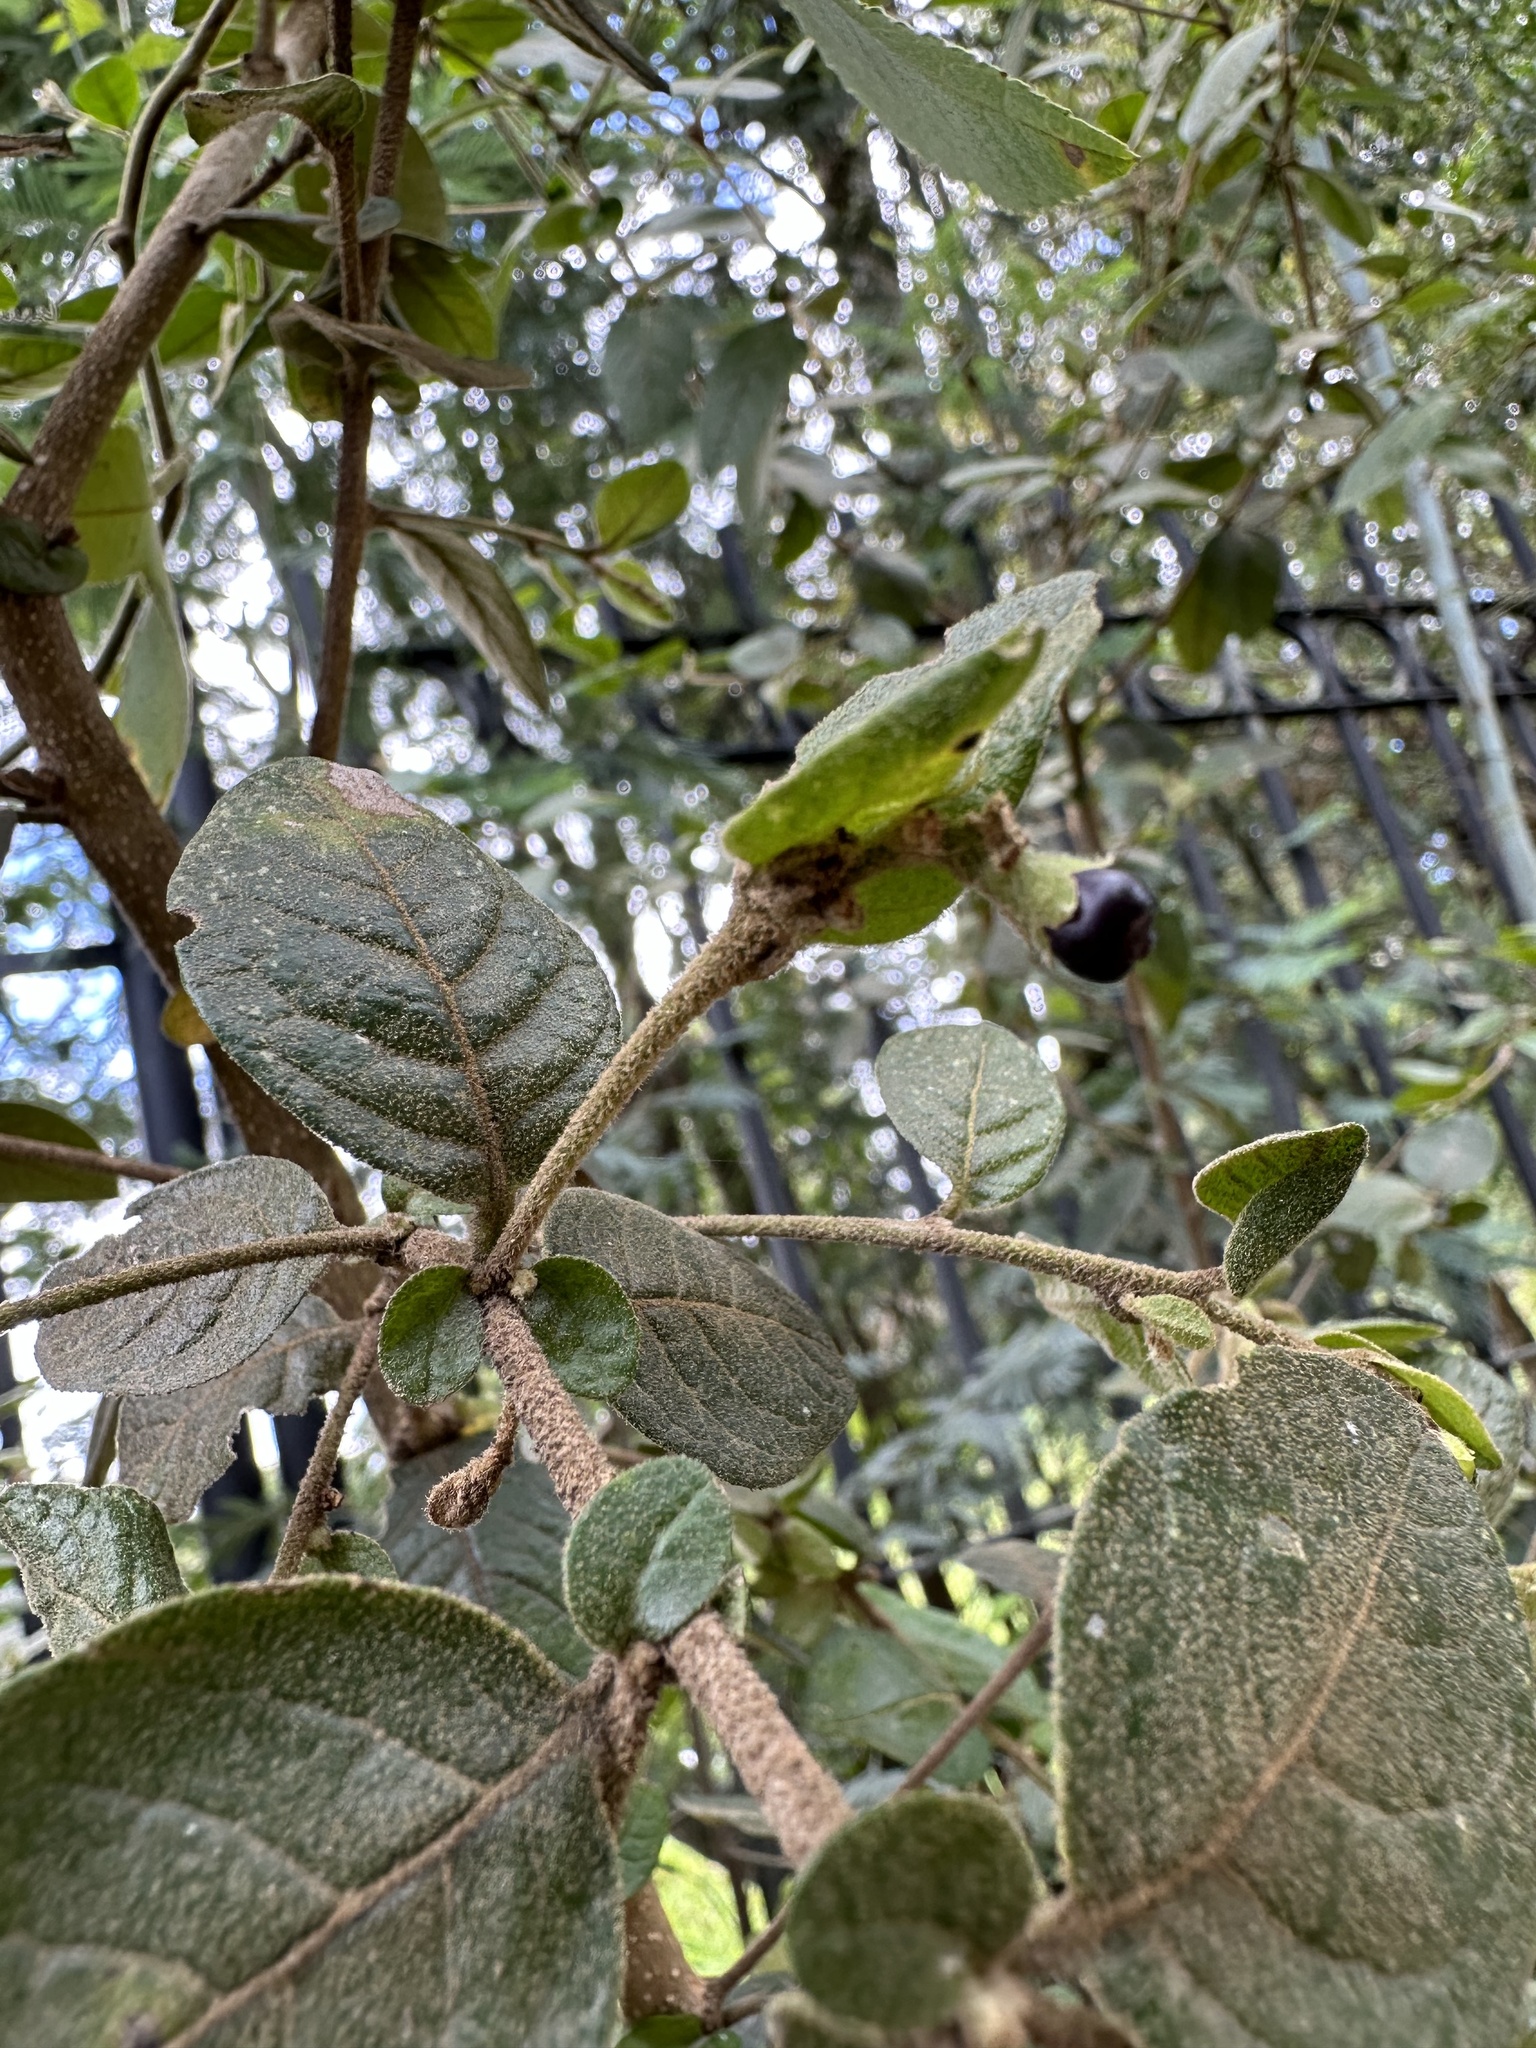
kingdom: Plantae
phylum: Tracheophyta
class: Magnoliopsida
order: Solanales
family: Solanaceae
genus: Cestrum
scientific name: Cestrum tomentosum
